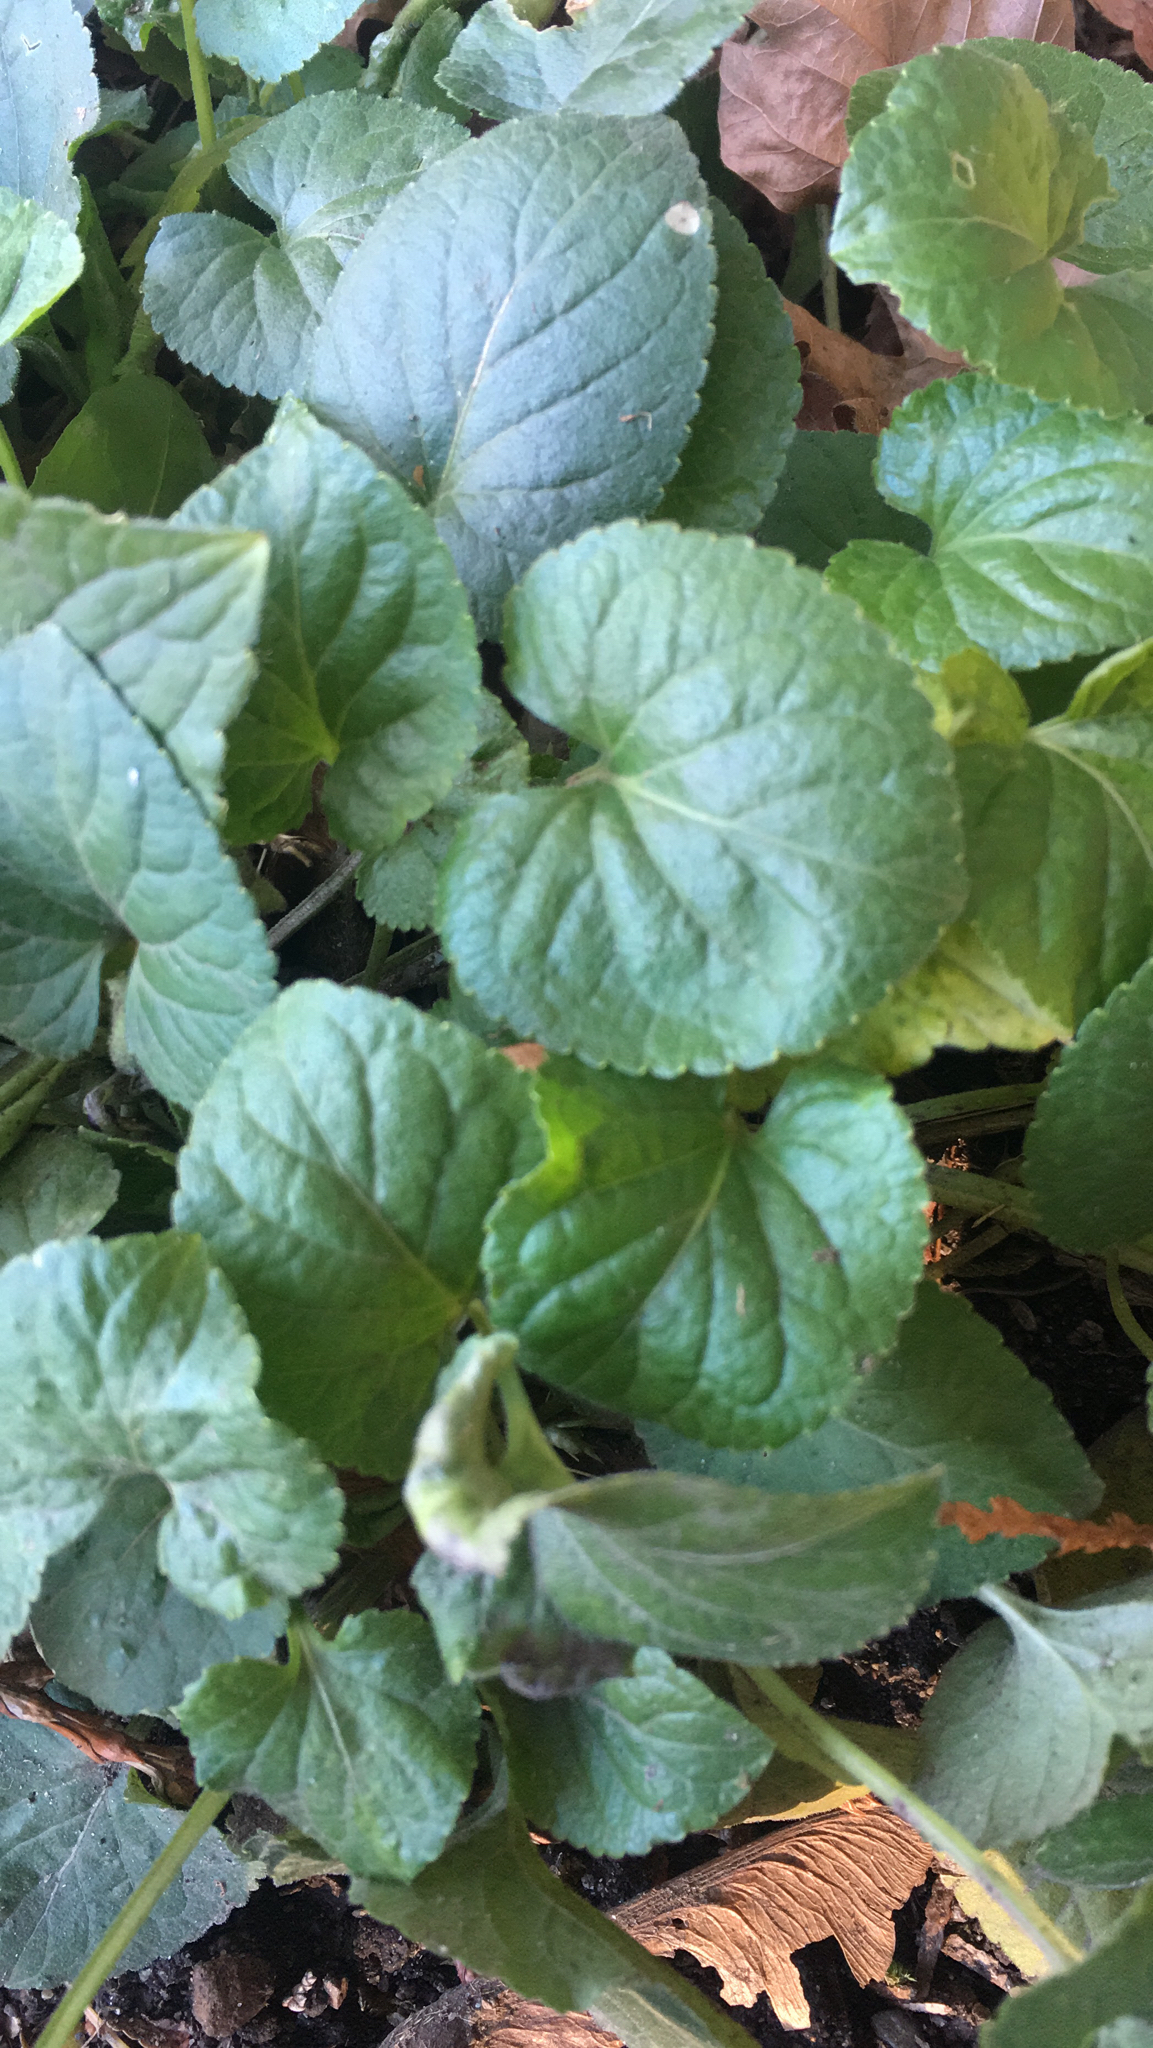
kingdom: Plantae
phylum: Tracheophyta
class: Magnoliopsida
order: Malpighiales
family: Violaceae
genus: Viola
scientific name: Viola odorata
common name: Sweet violet
